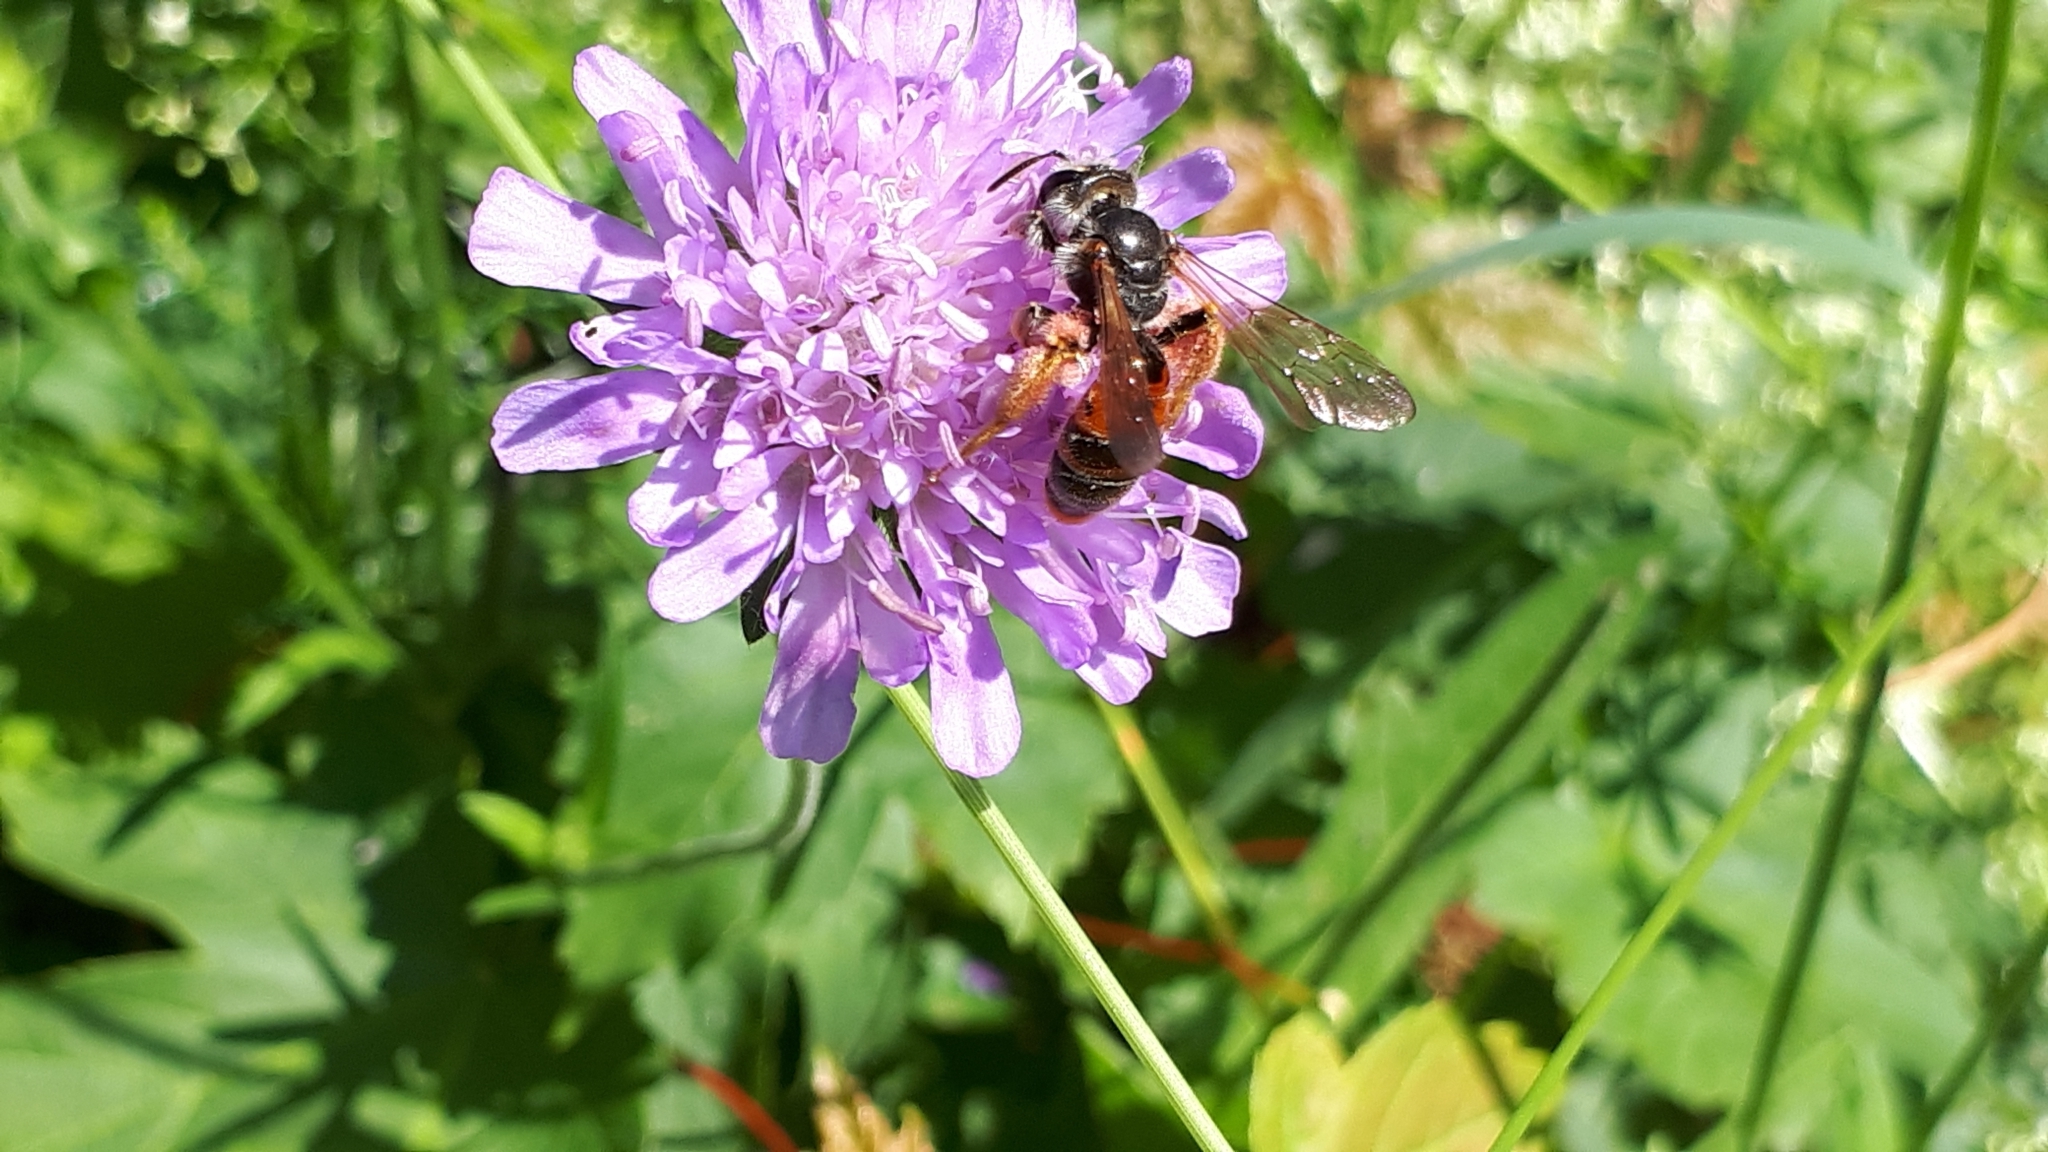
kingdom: Animalia
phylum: Arthropoda
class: Insecta
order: Hymenoptera
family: Andrenidae
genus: Andrena
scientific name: Andrena hattorfiana
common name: Large scabious mining bee
